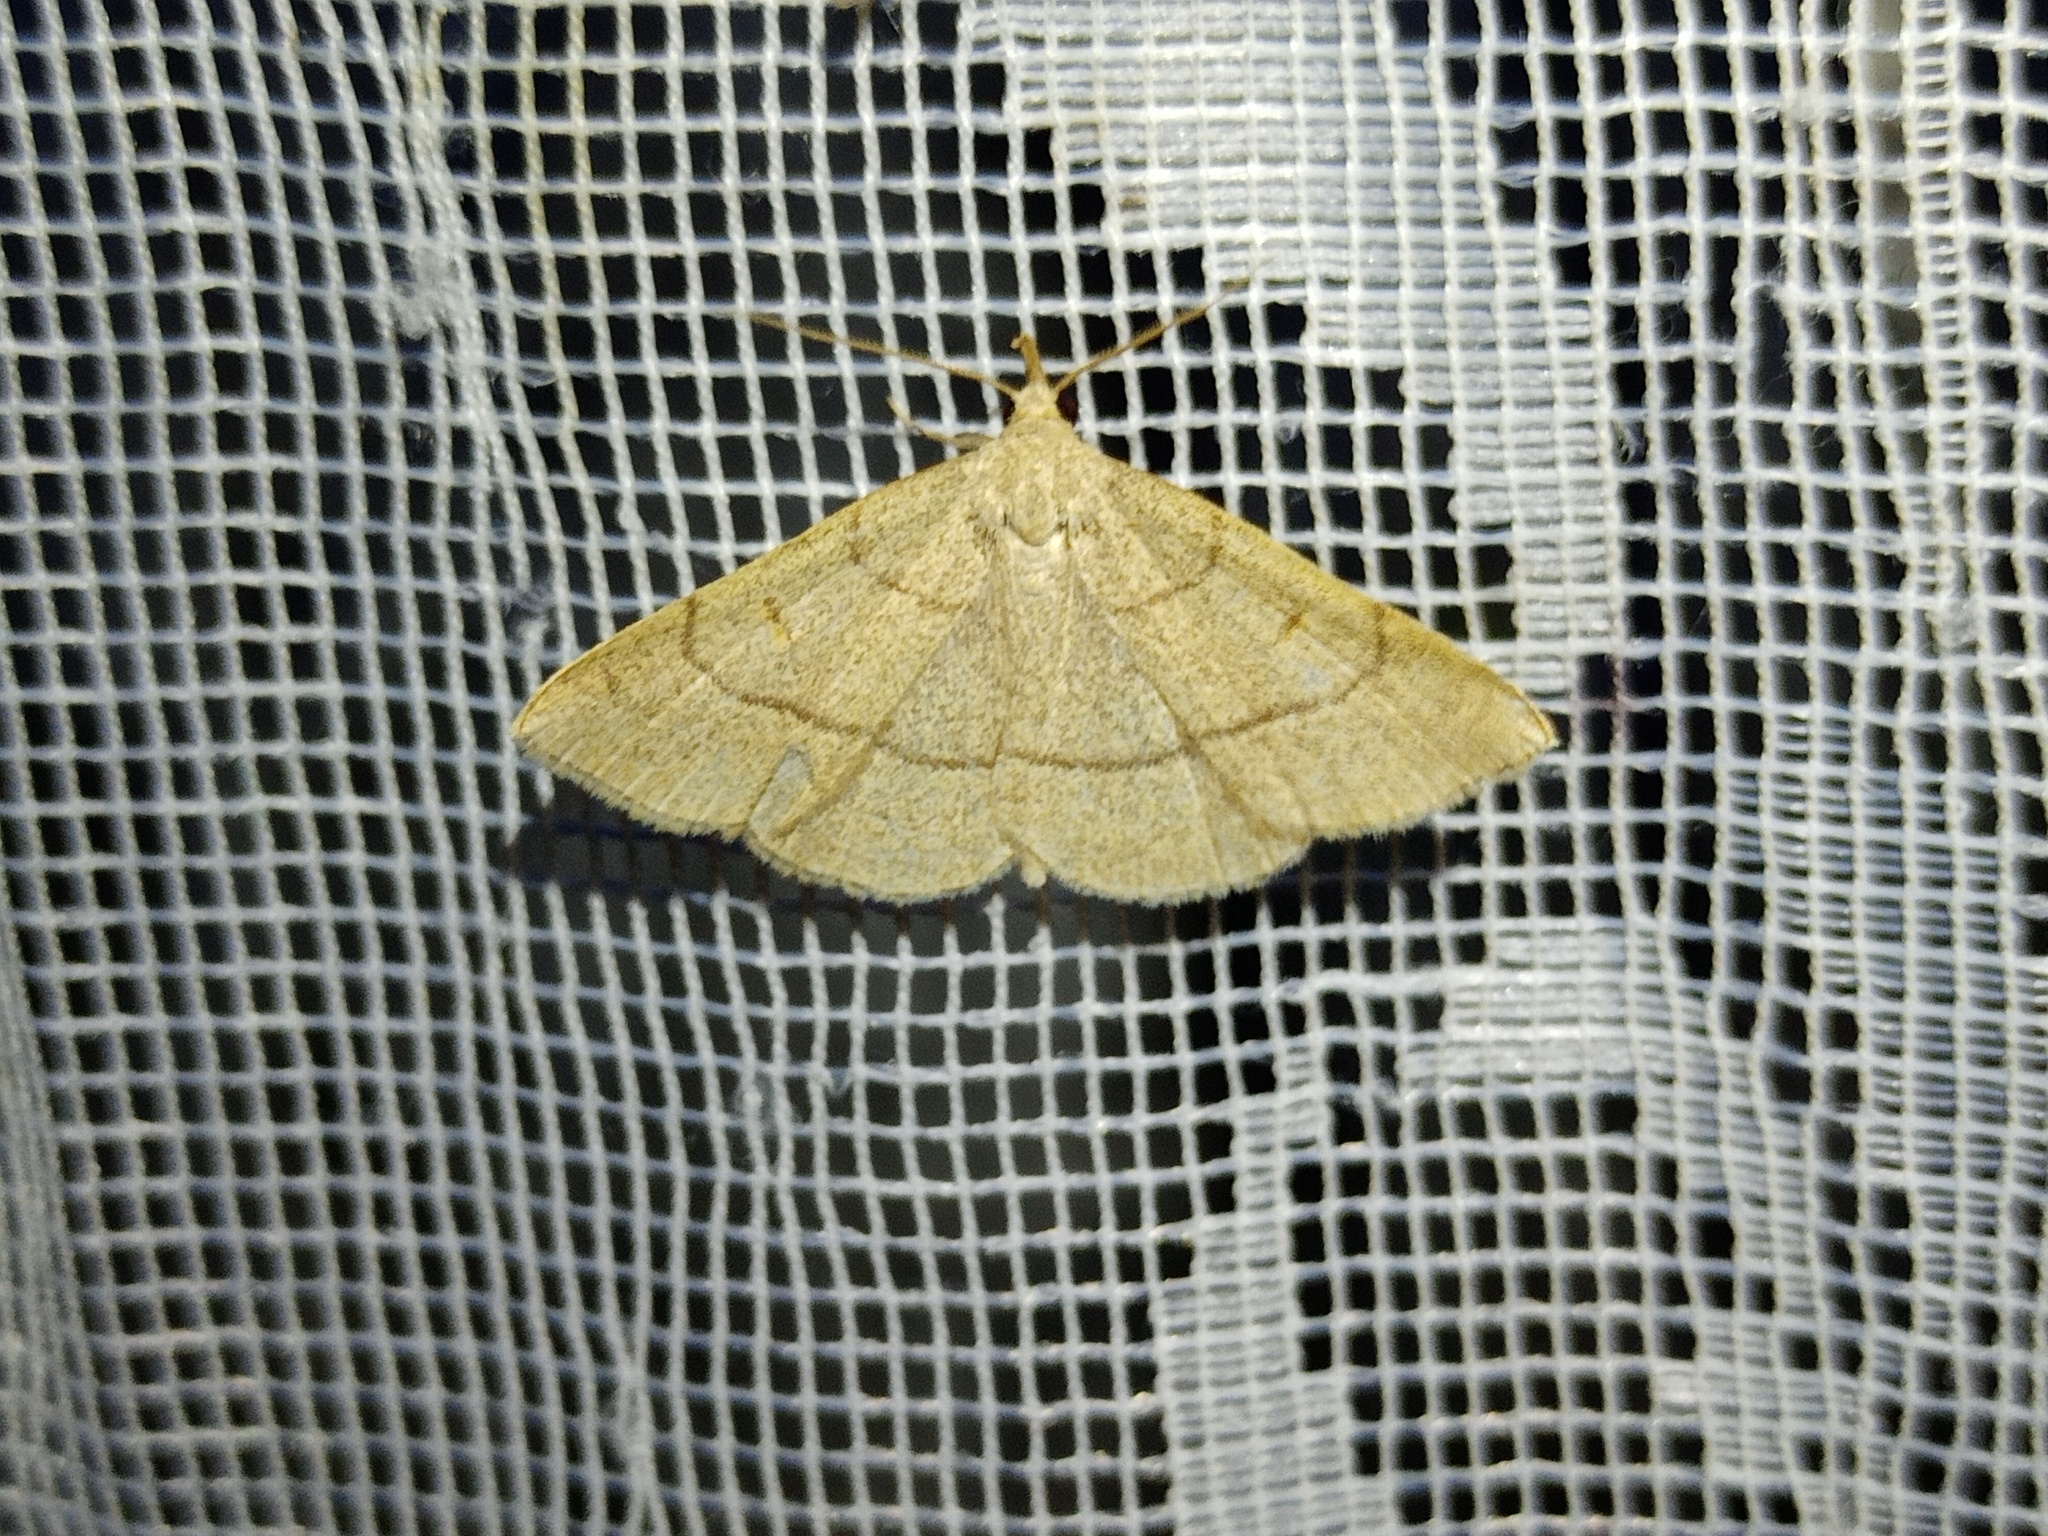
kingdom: Animalia
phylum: Arthropoda
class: Insecta
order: Lepidoptera
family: Erebidae
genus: Paracolax
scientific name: Paracolax tristalis
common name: Clay fan-foot
